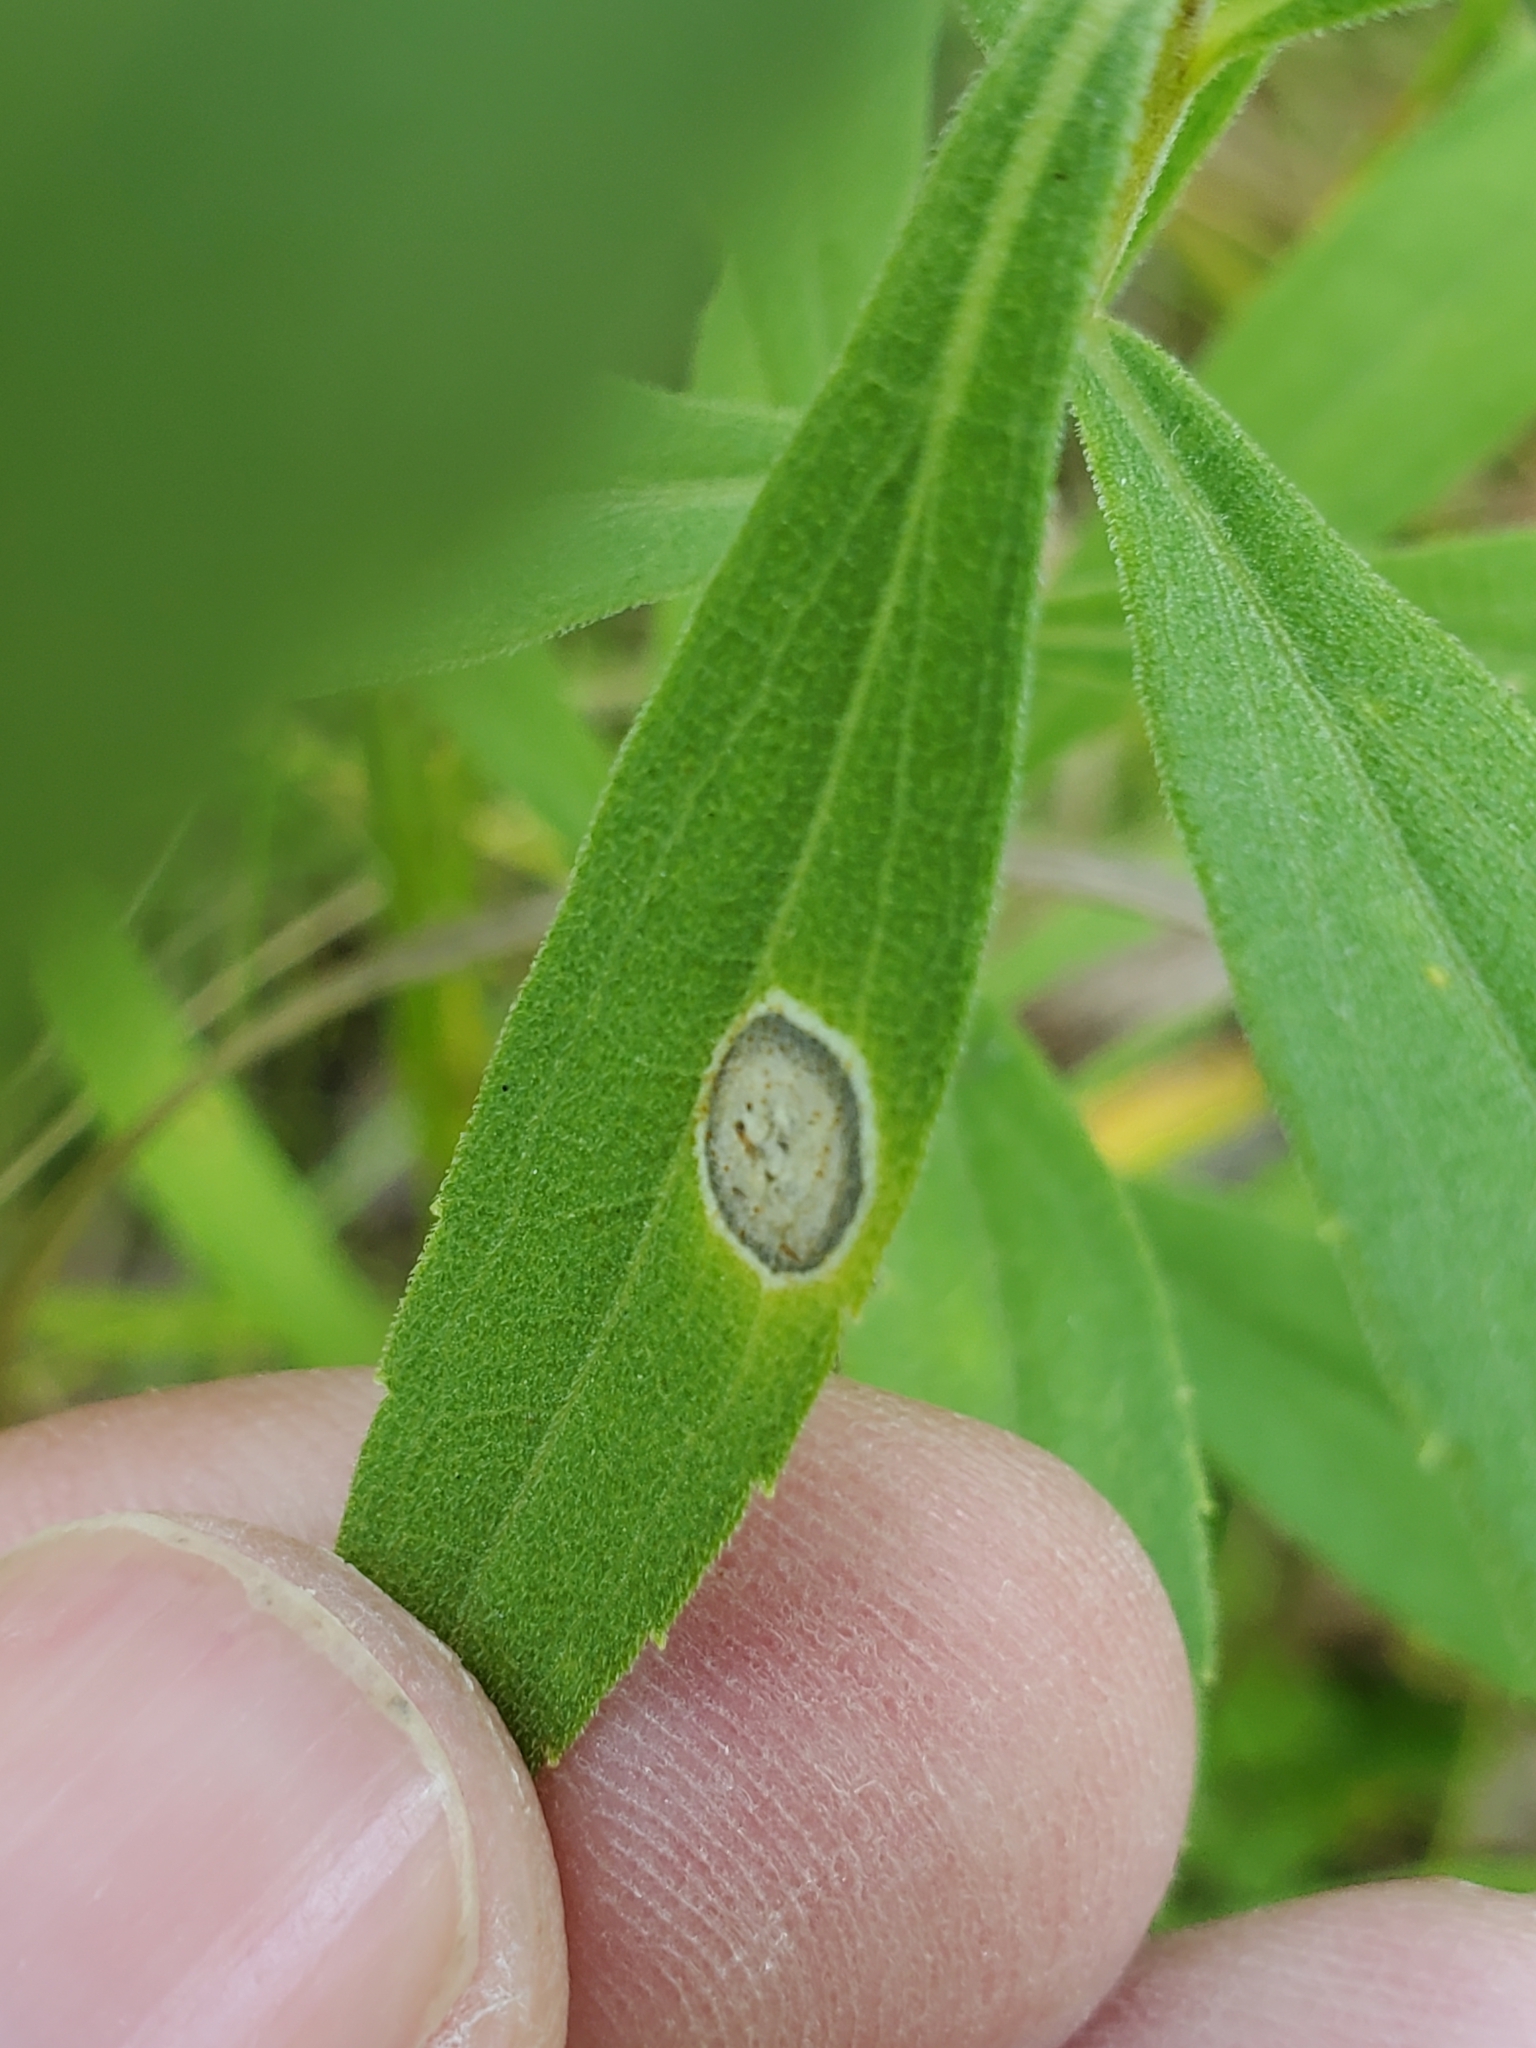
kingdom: Animalia
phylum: Arthropoda
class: Insecta
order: Diptera
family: Cecidomyiidae
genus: Asteromyia
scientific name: Asteromyia carbonifera
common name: Carbonifera goldenrod gall midge
